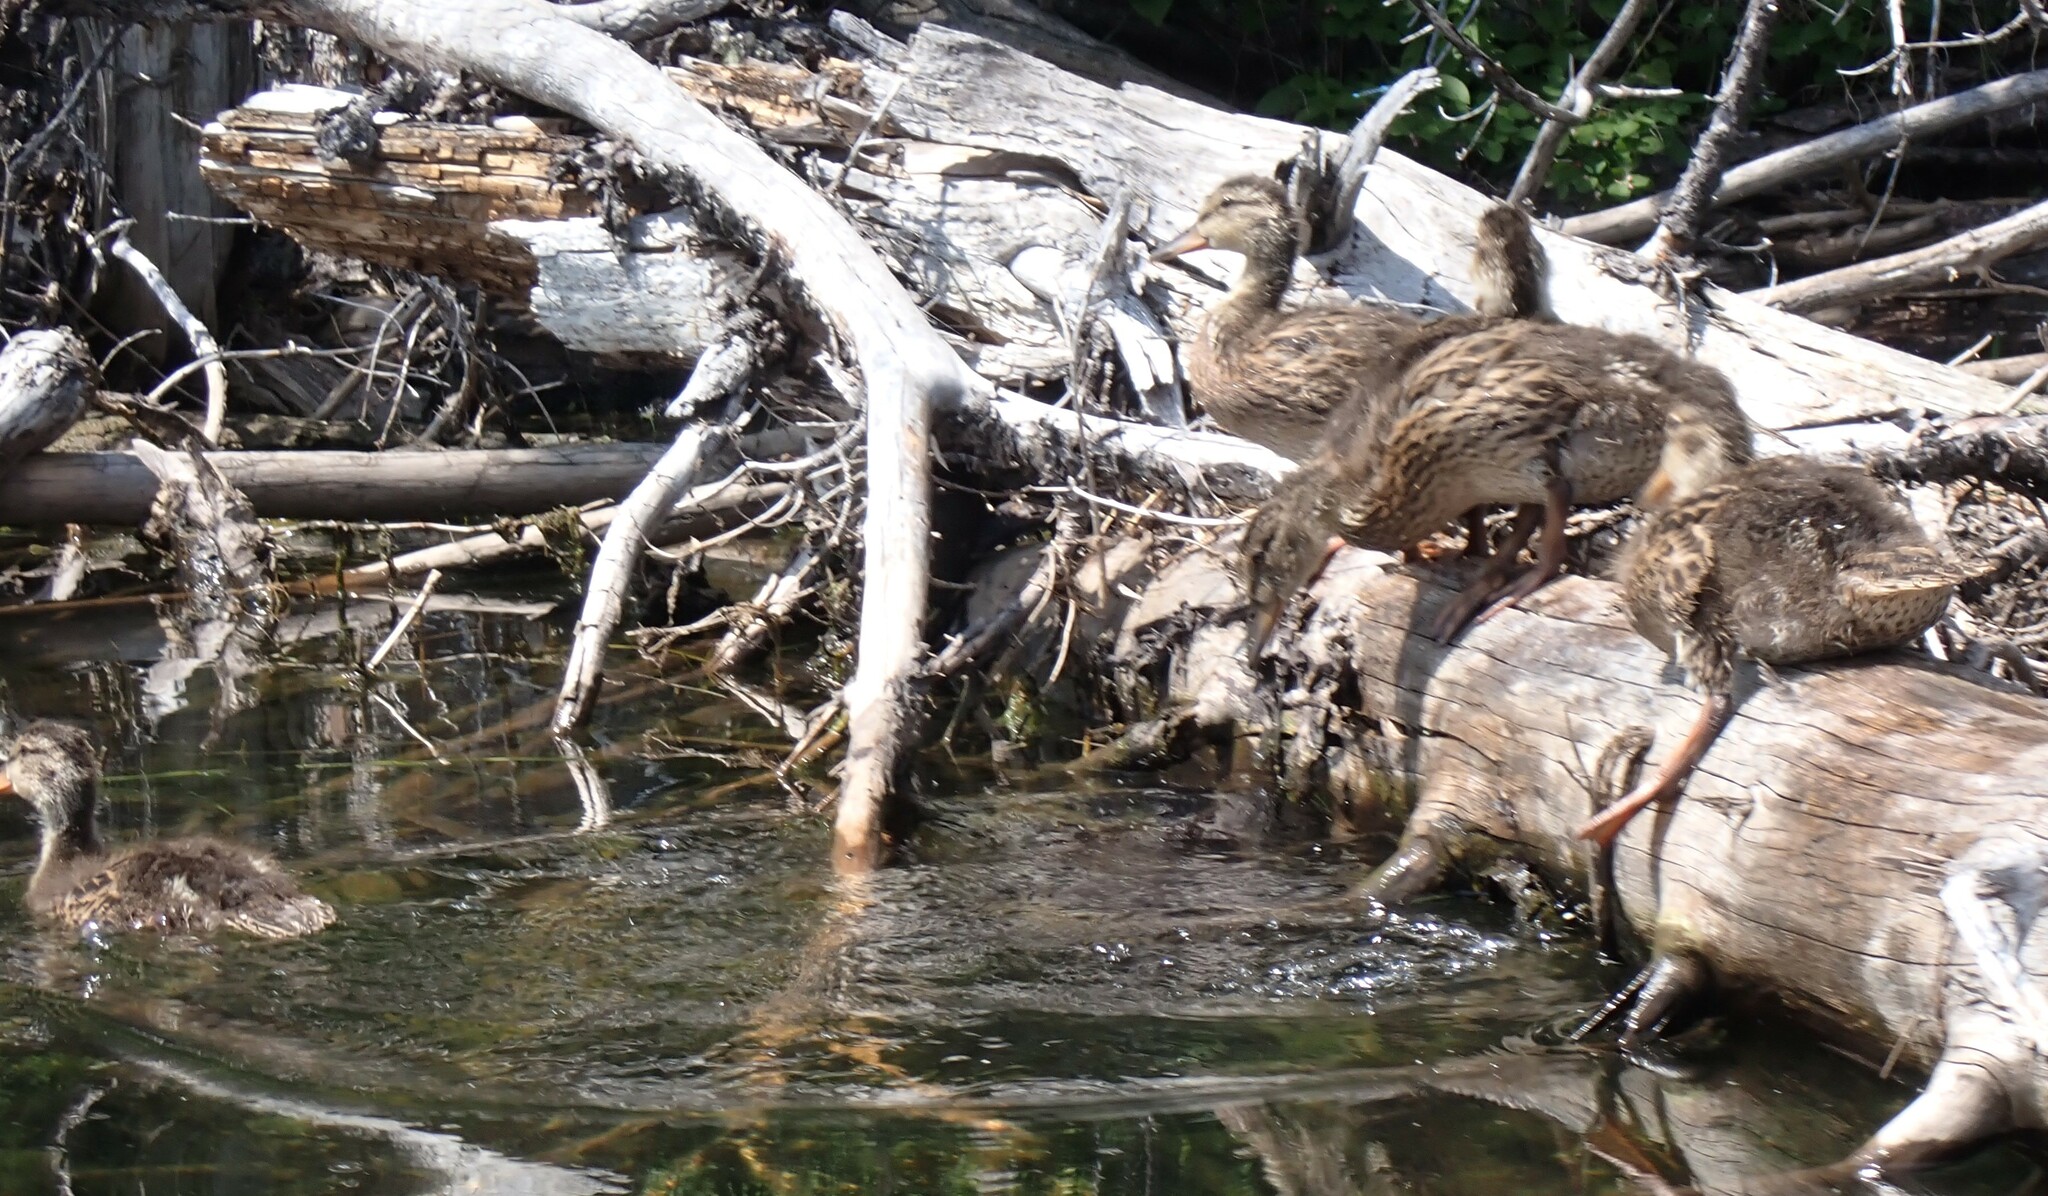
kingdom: Animalia
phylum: Chordata
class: Aves
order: Anseriformes
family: Anatidae
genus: Anas
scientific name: Anas platyrhynchos
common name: Mallard
